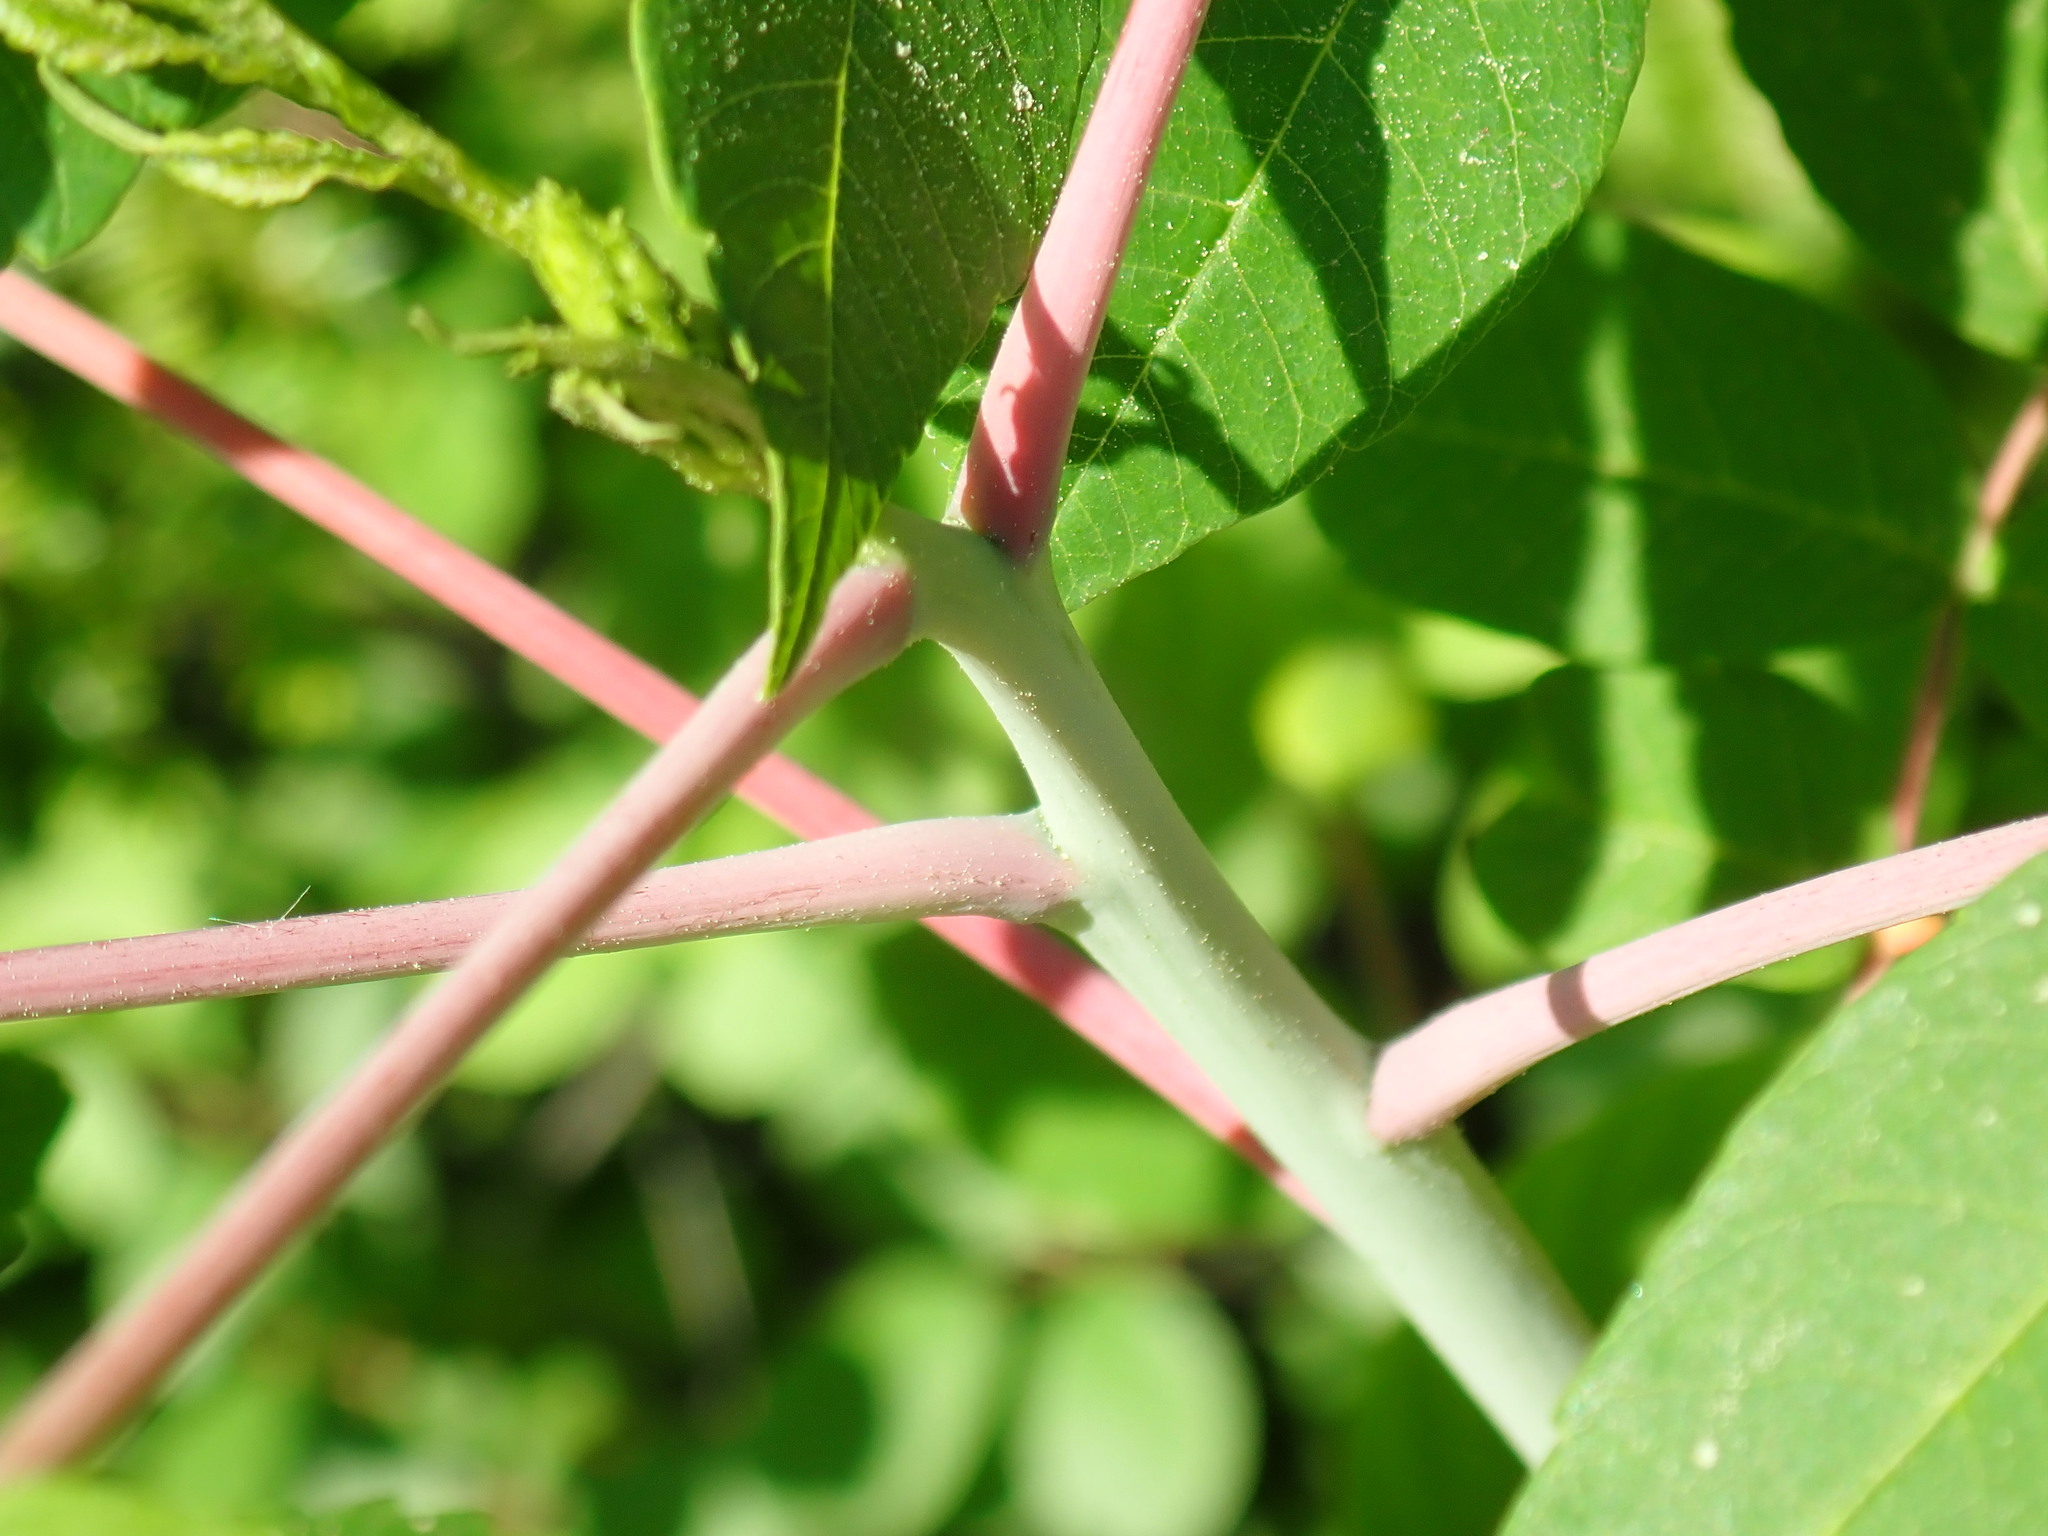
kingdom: Plantae
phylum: Tracheophyta
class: Magnoliopsida
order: Sapindales
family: Anacardiaceae
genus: Rhus
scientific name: Rhus glabra
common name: Scarlet sumac
